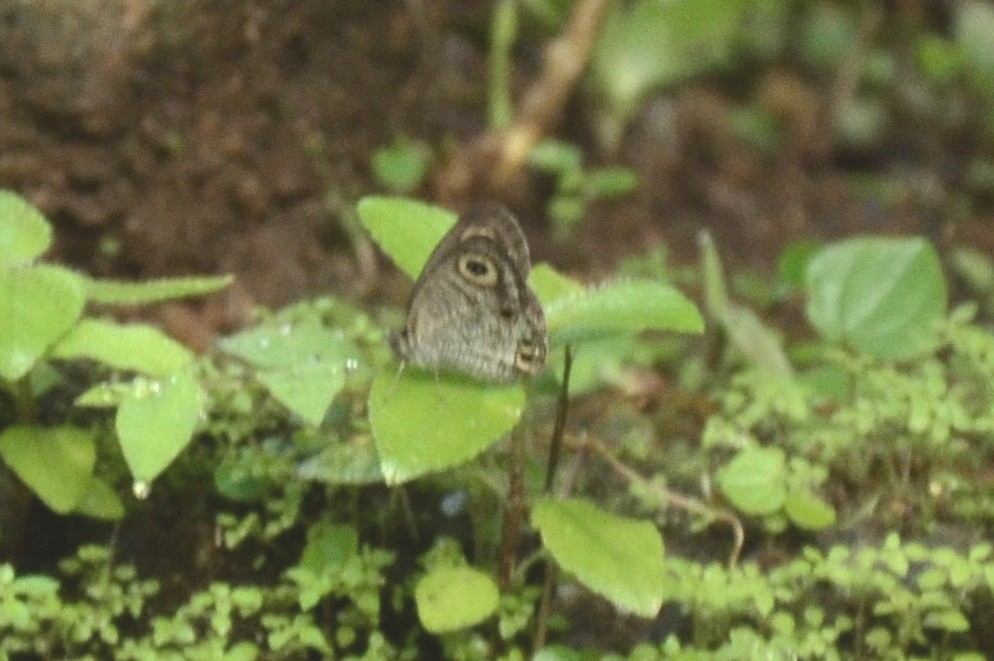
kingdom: Animalia
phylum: Arthropoda
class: Insecta
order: Lepidoptera
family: Nymphalidae
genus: Ypthima
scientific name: Ypthima huebneri
